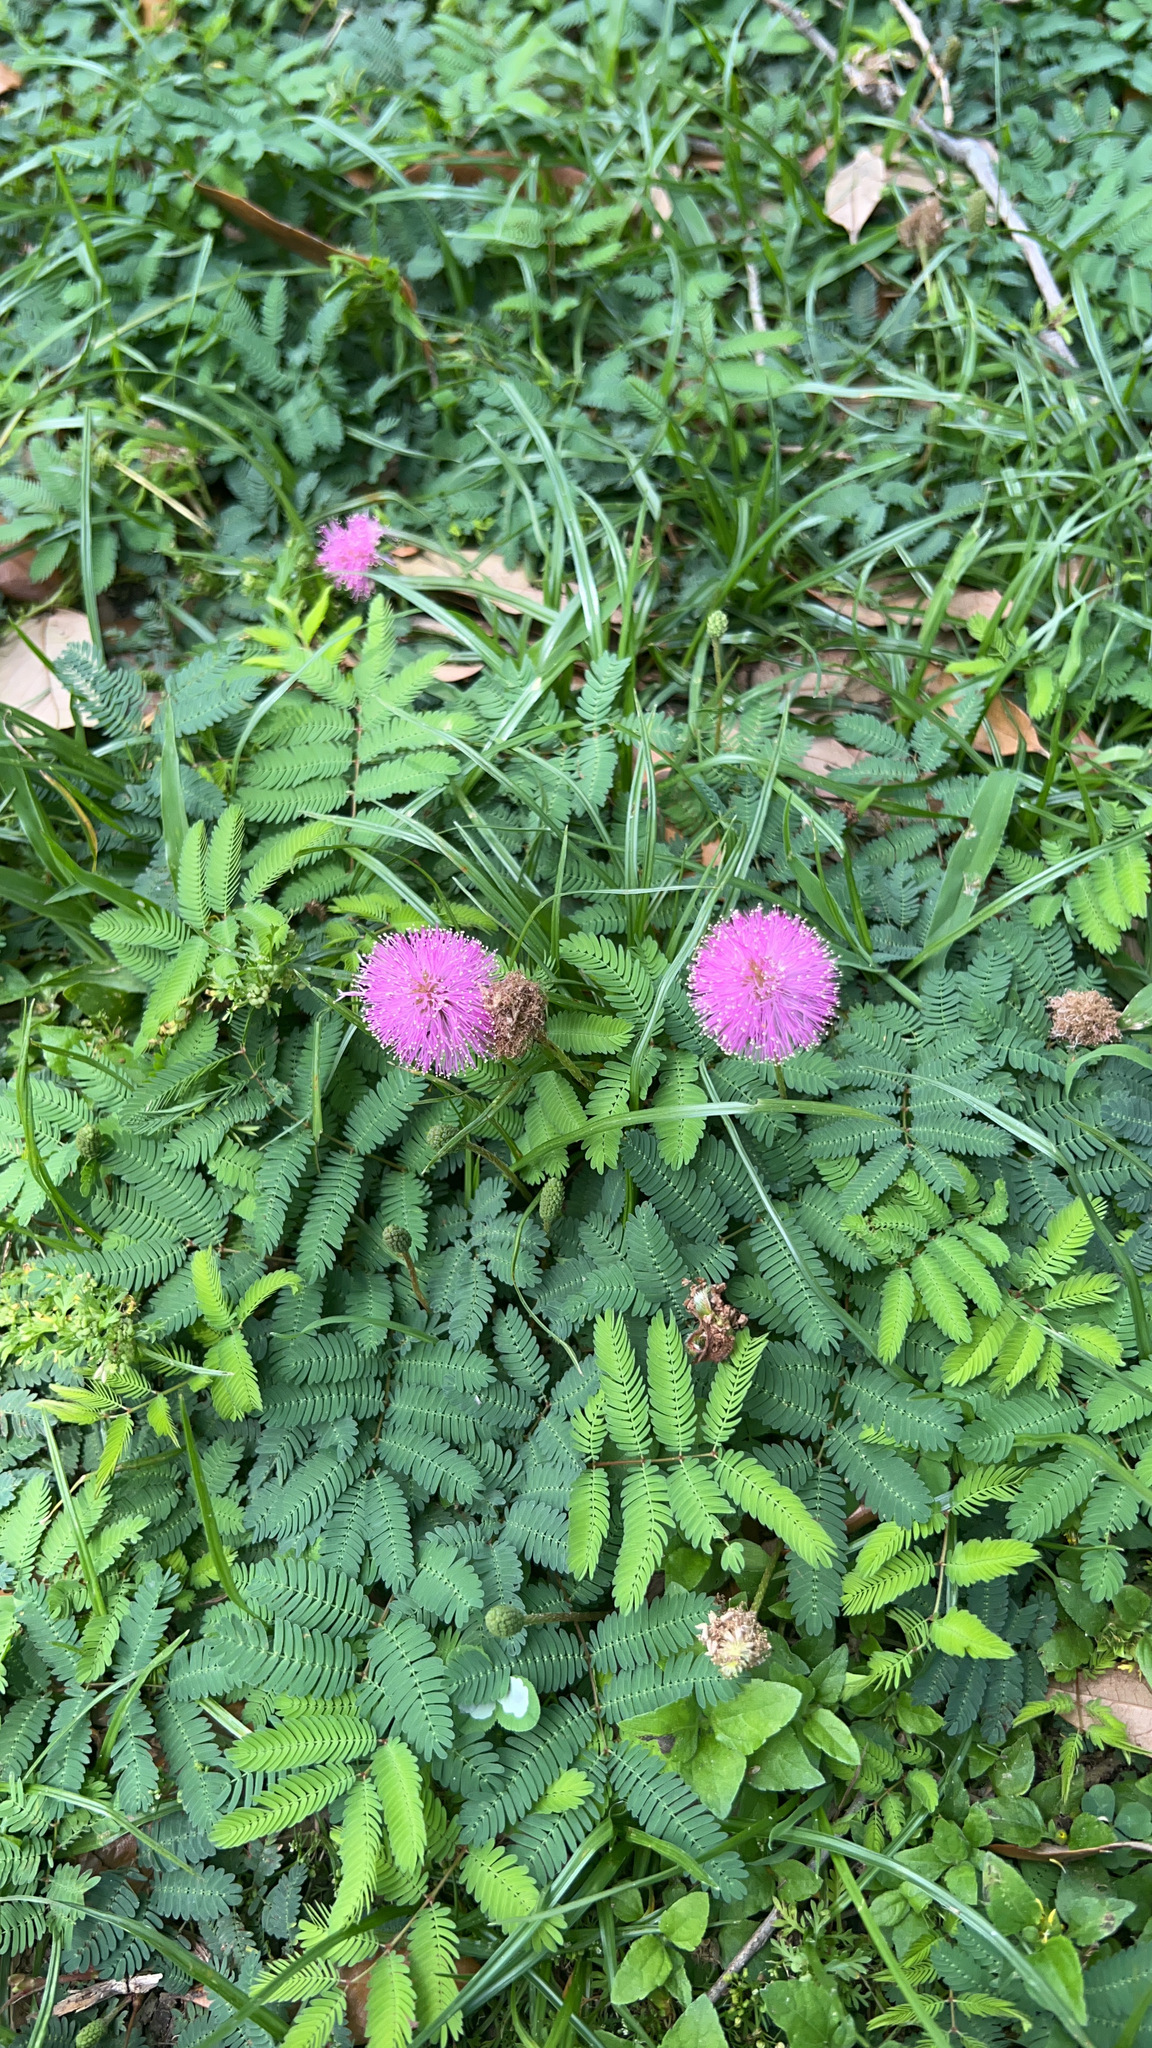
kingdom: Plantae
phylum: Tracheophyta
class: Magnoliopsida
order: Fabales
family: Fabaceae
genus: Mimosa
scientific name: Mimosa strigillosa
